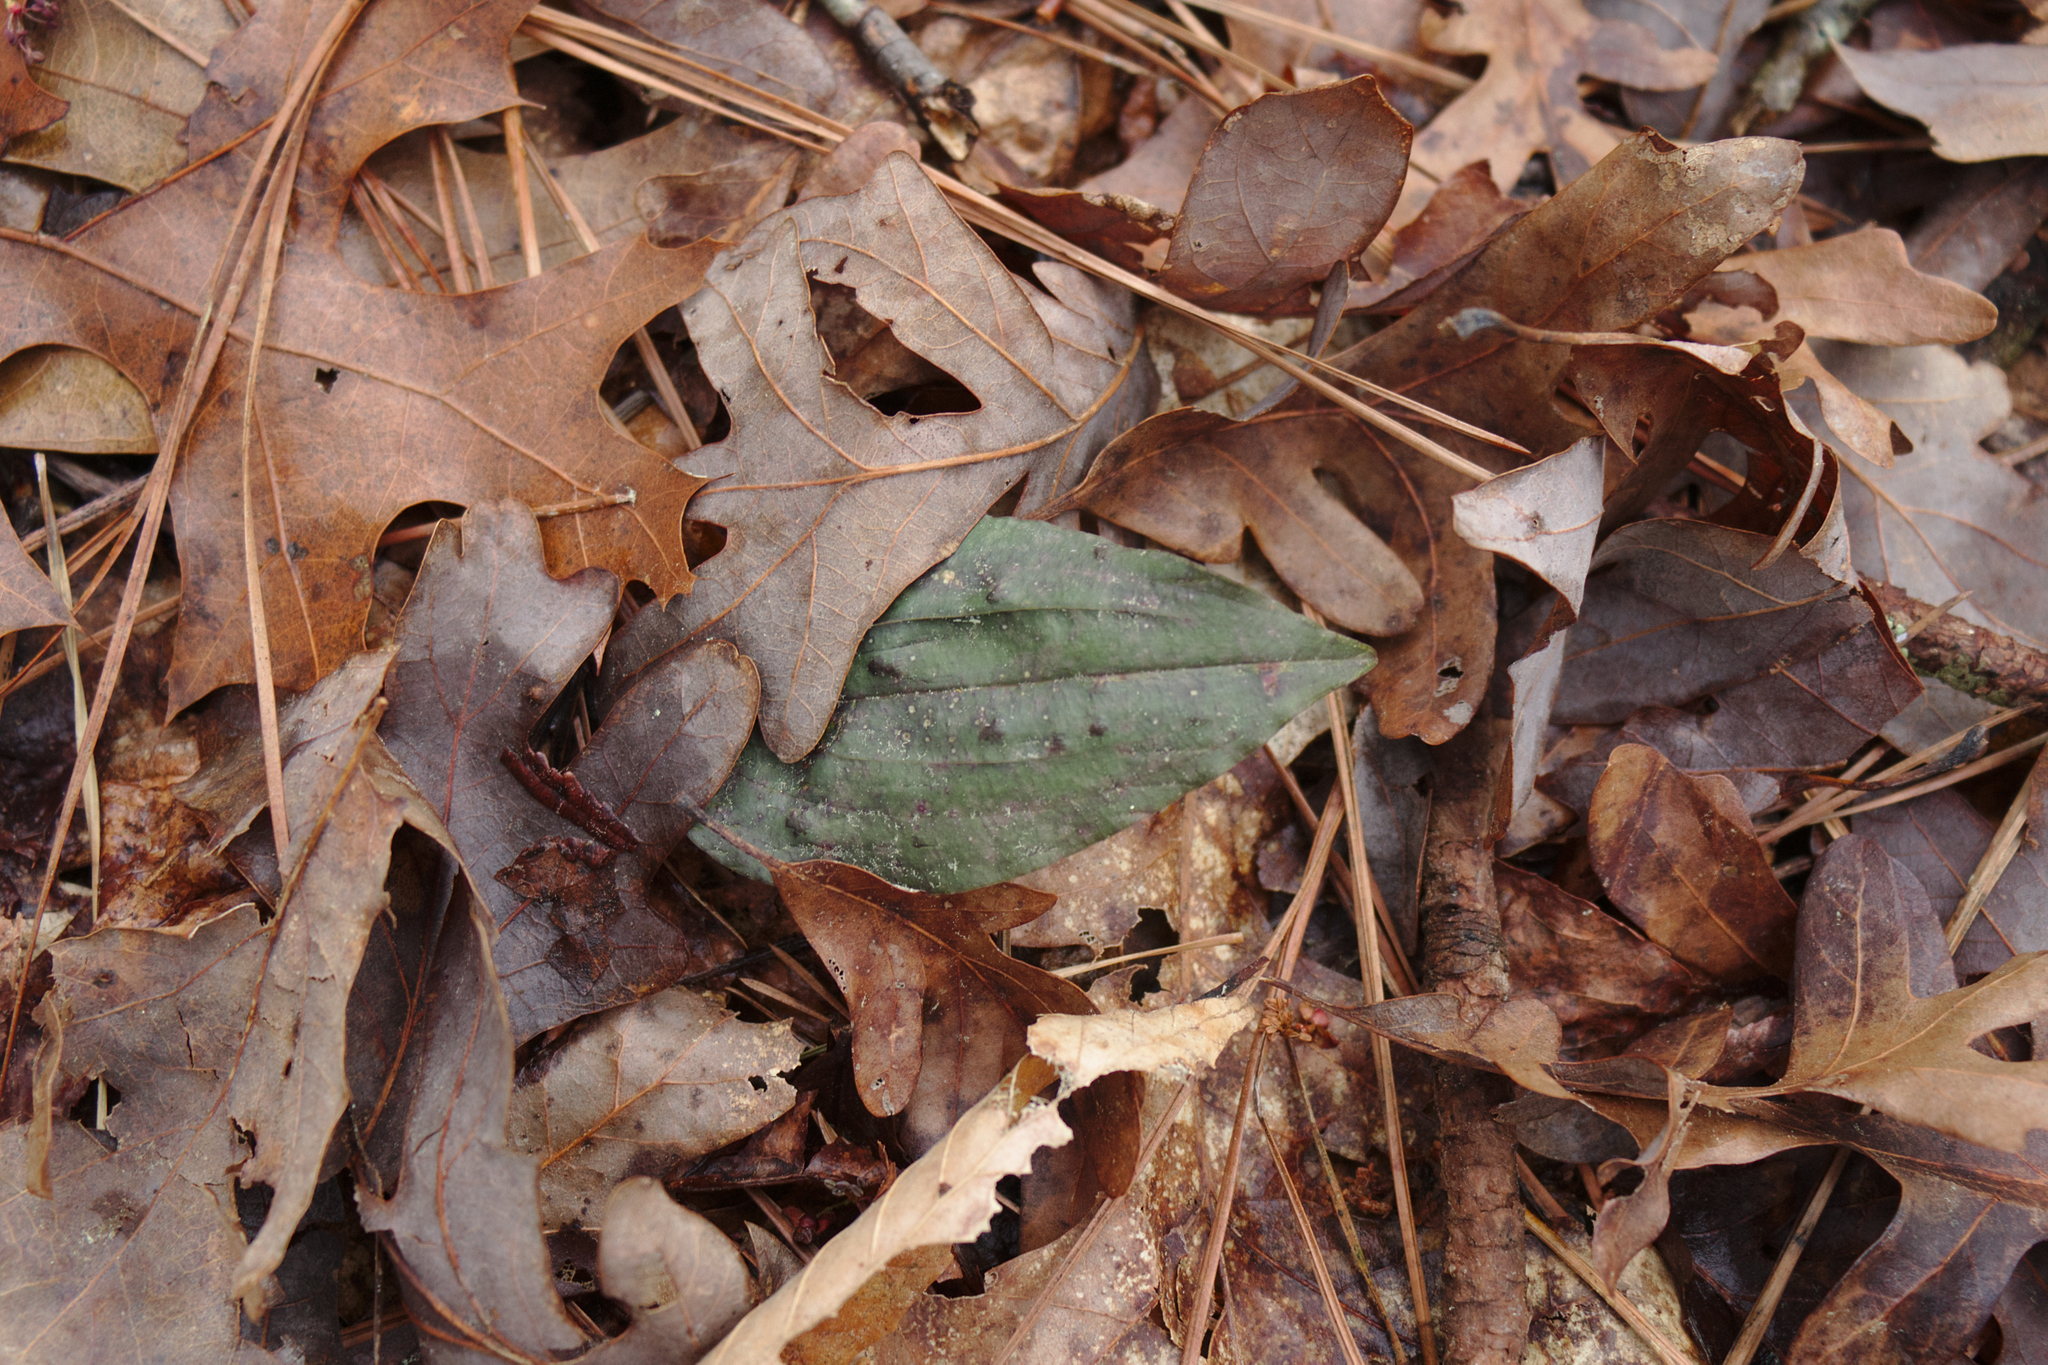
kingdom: Plantae
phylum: Tracheophyta
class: Liliopsida
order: Asparagales
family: Orchidaceae
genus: Tipularia
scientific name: Tipularia discolor
